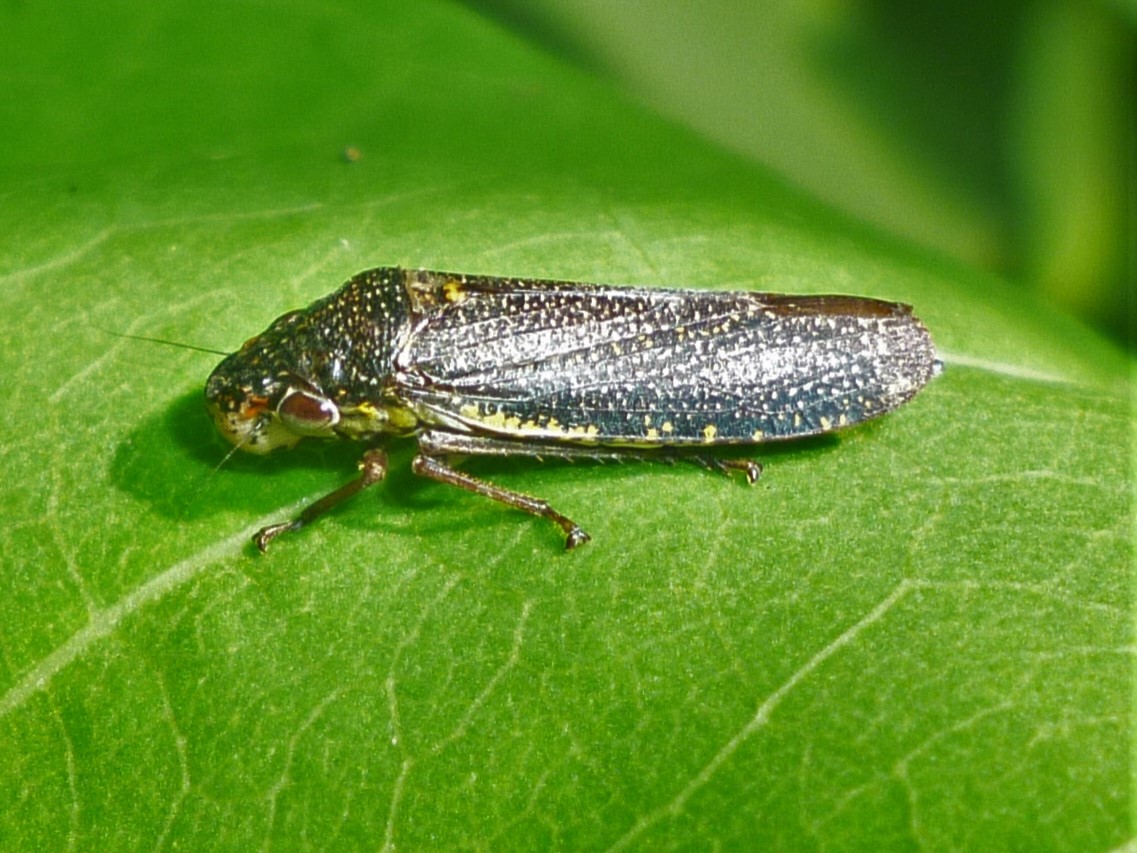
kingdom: Animalia
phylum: Arthropoda
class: Insecta
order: Hemiptera
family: Cicadellidae
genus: Paraulacizes
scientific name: Paraulacizes irrorata
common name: Speckled sharpshooter
